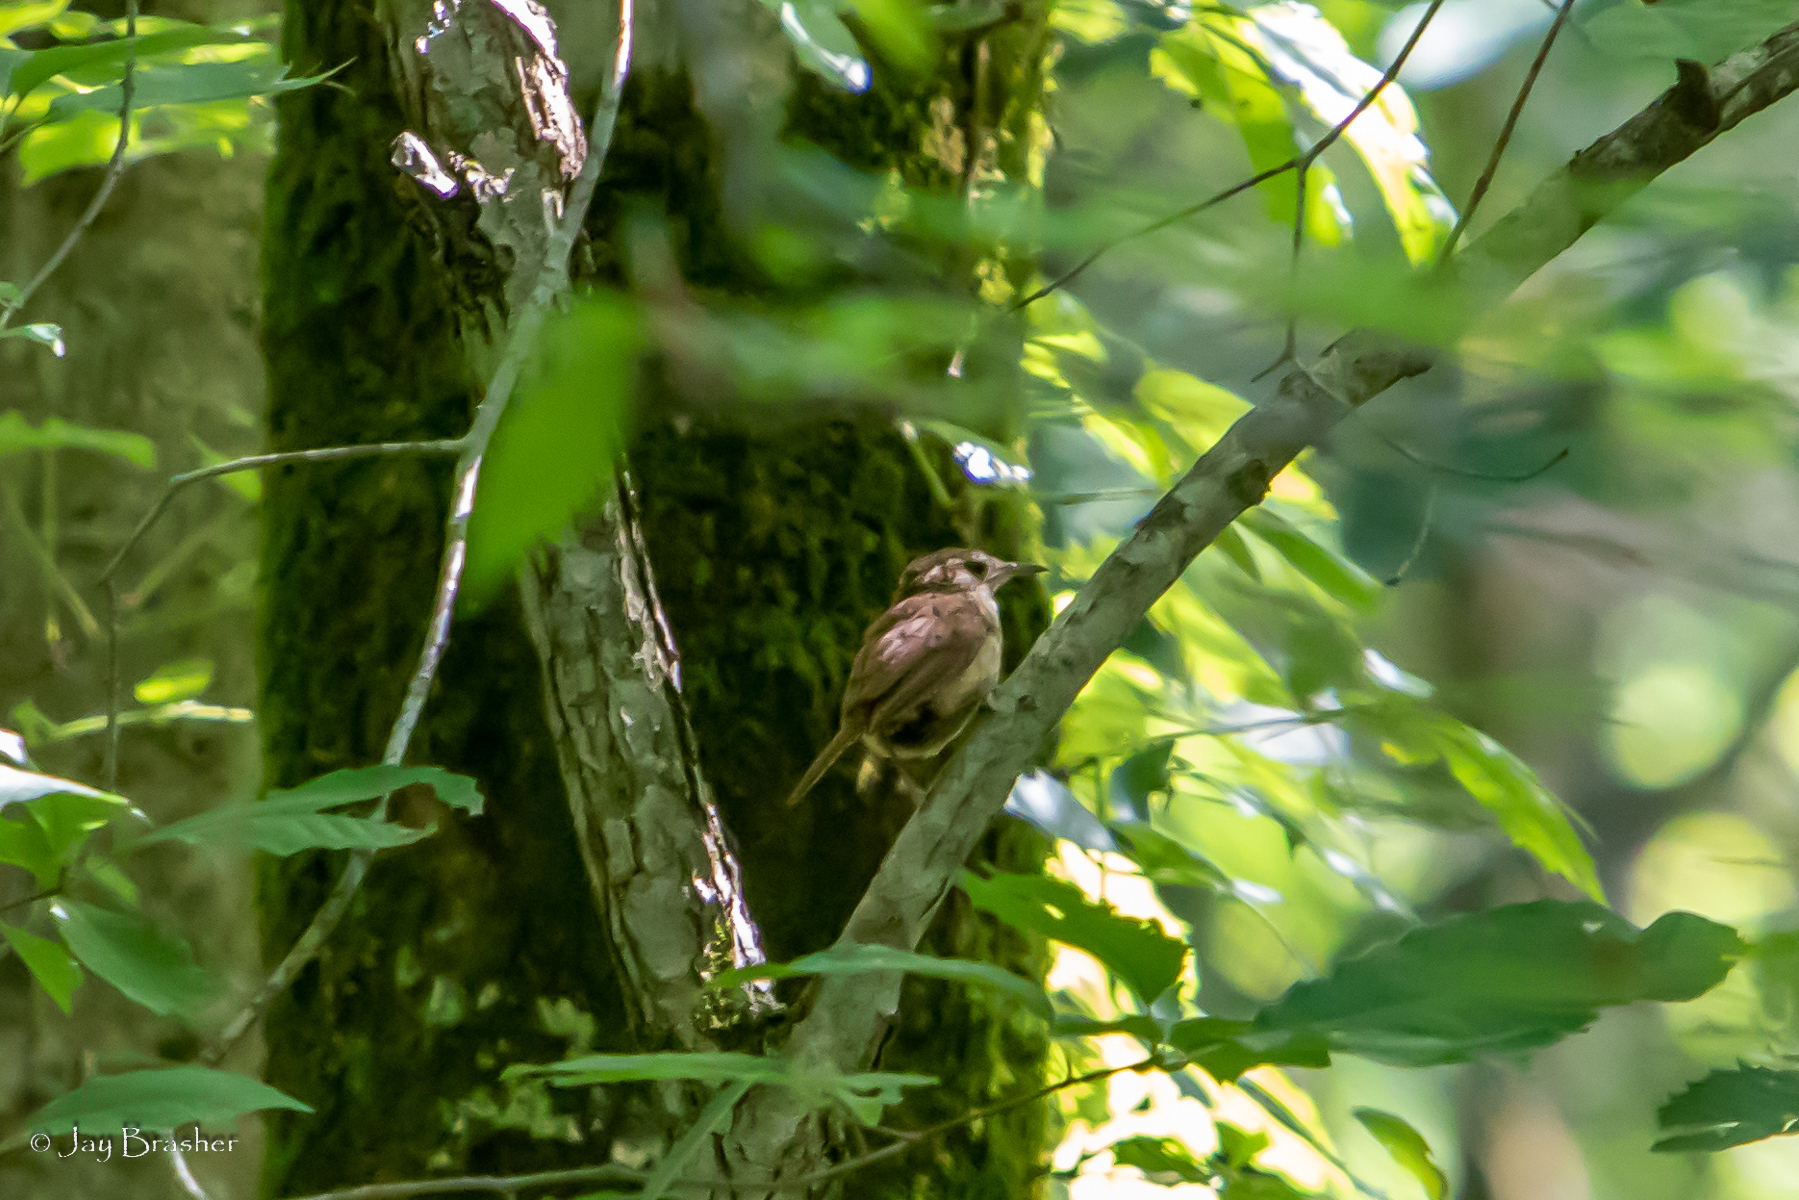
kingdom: Animalia
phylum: Chordata
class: Aves
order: Passeriformes
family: Troglodytidae
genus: Thryothorus
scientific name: Thryothorus ludovicianus
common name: Carolina wren
